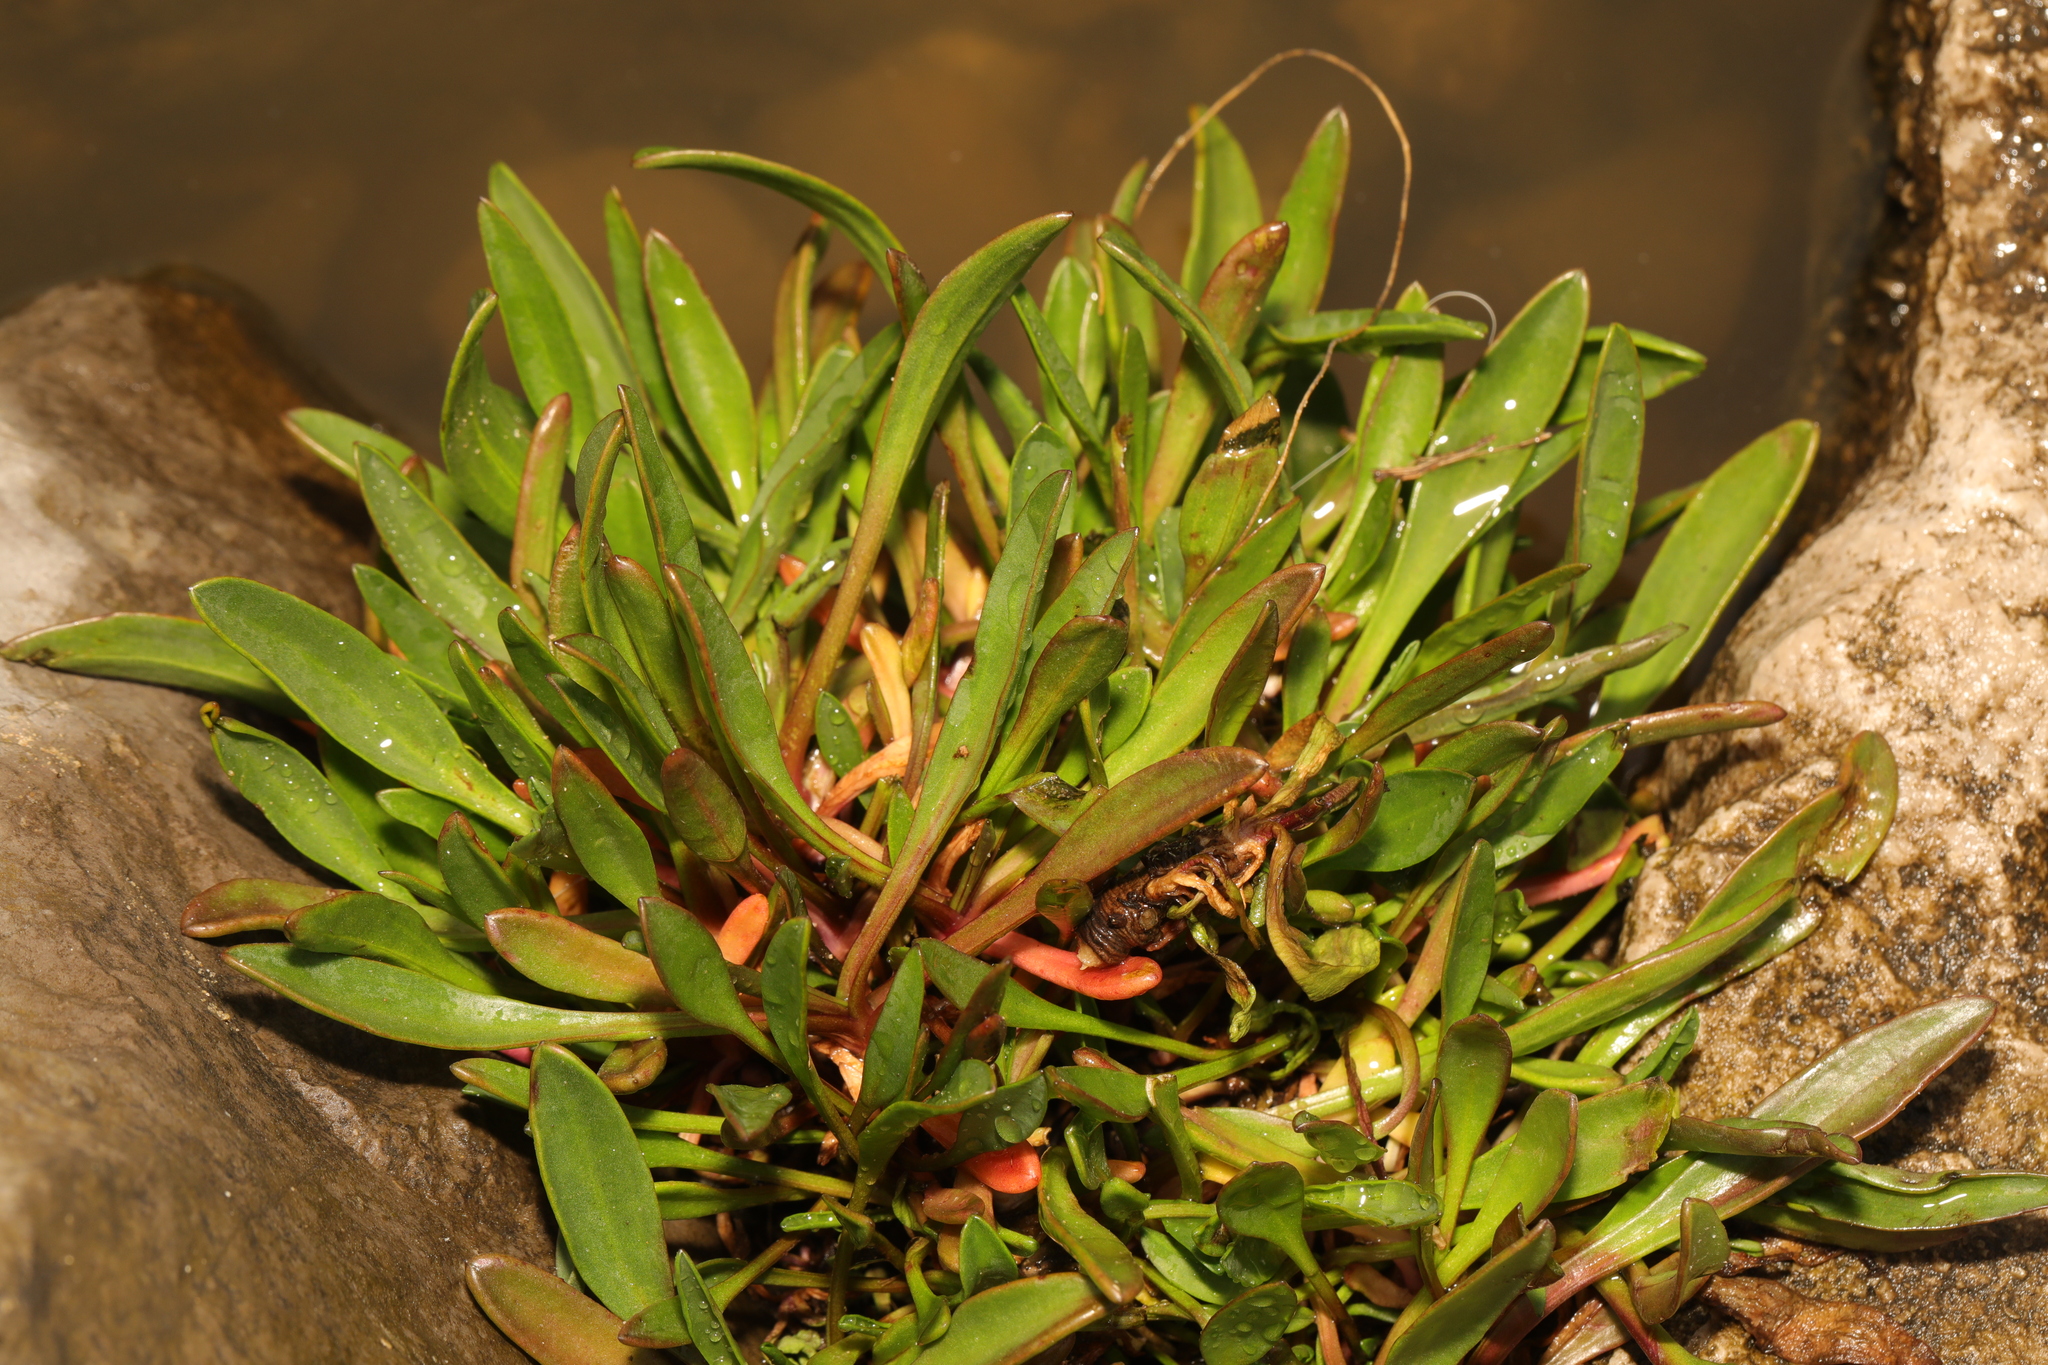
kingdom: Plantae
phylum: Tracheophyta
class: Magnoliopsida
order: Asterales
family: Asteraceae
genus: Tripolium
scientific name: Tripolium pannonicum
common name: Sea aster
